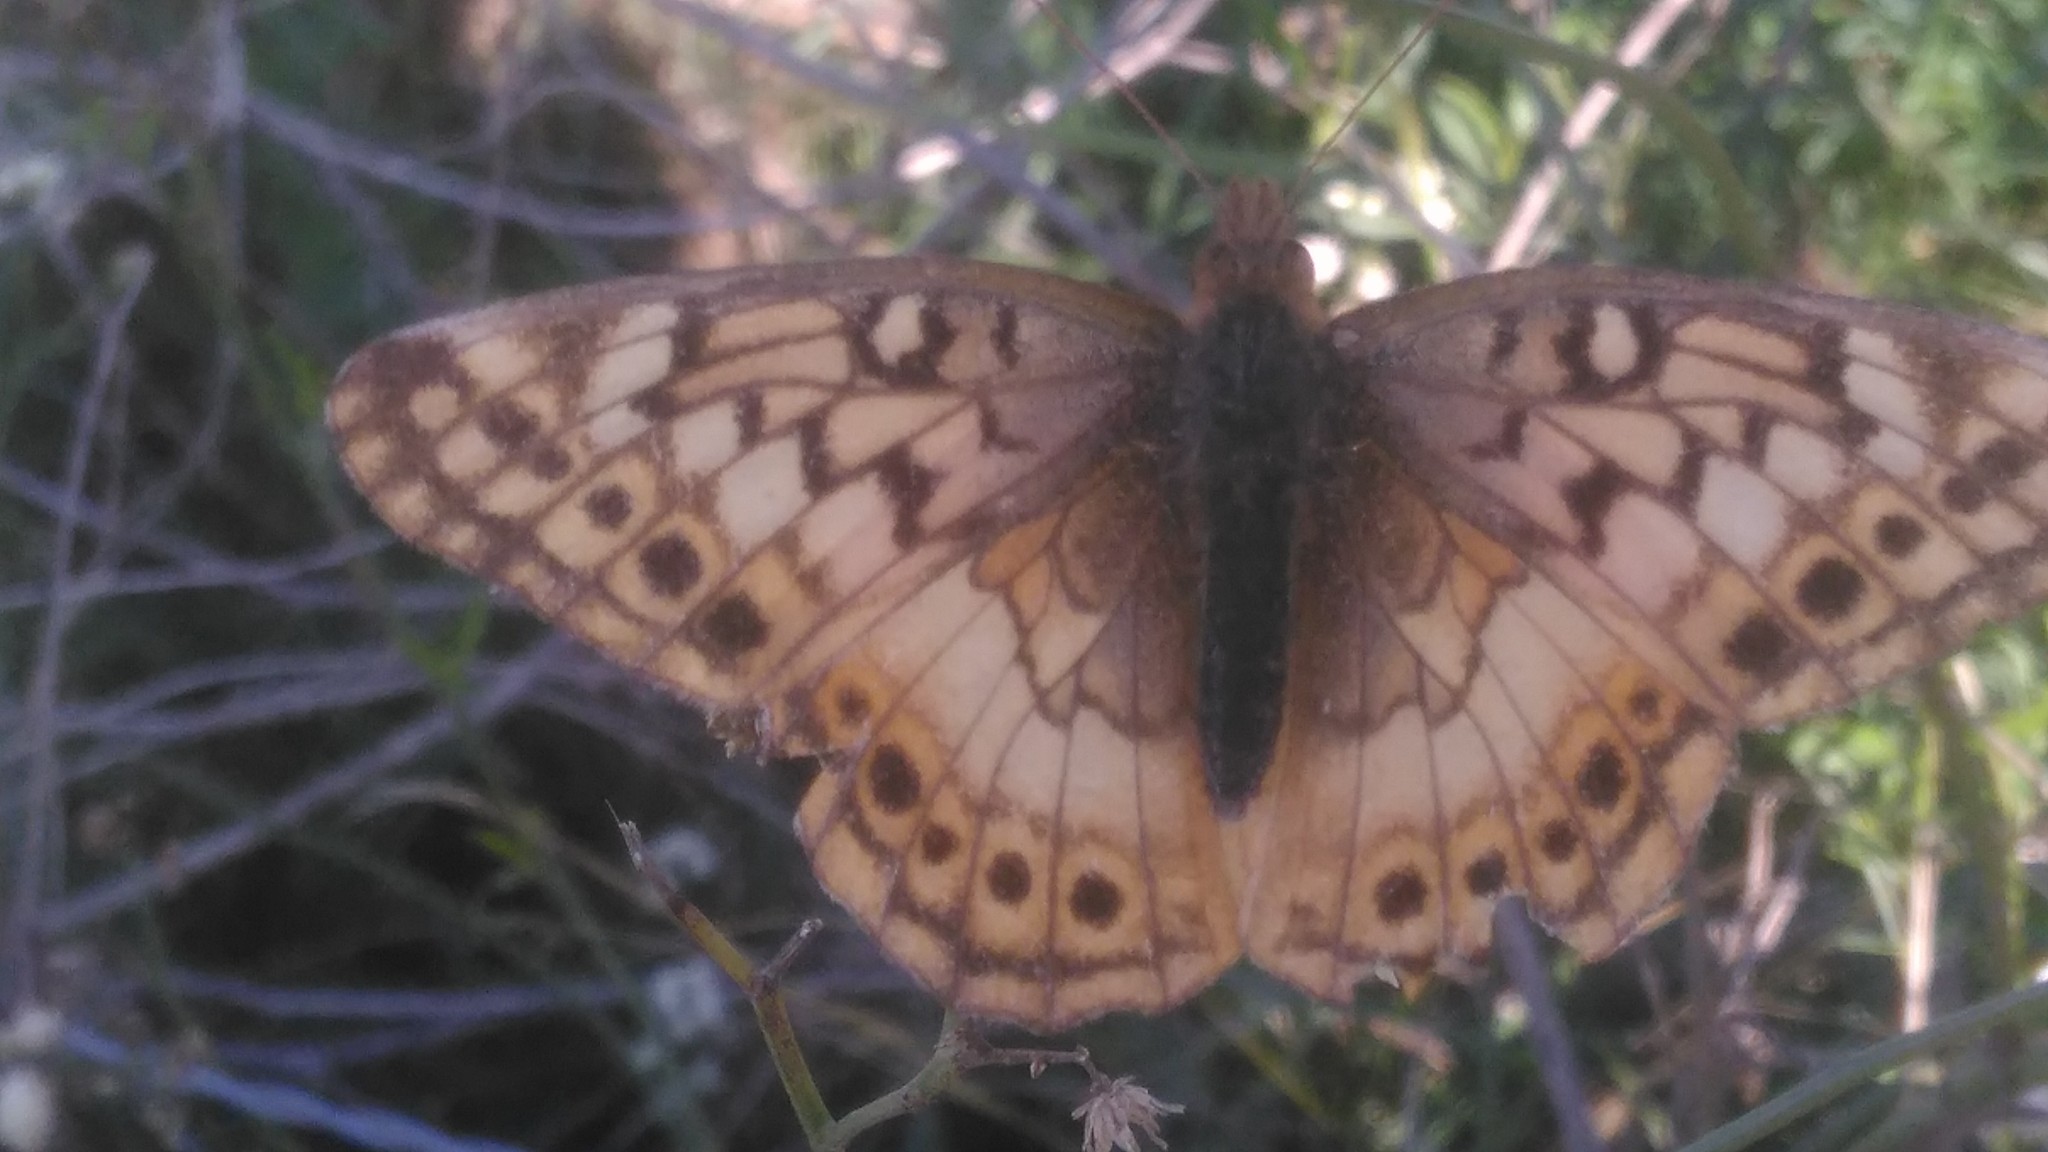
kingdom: Animalia
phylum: Arthropoda
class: Insecta
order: Lepidoptera
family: Nymphalidae
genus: Euptoieta
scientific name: Euptoieta hortensia
